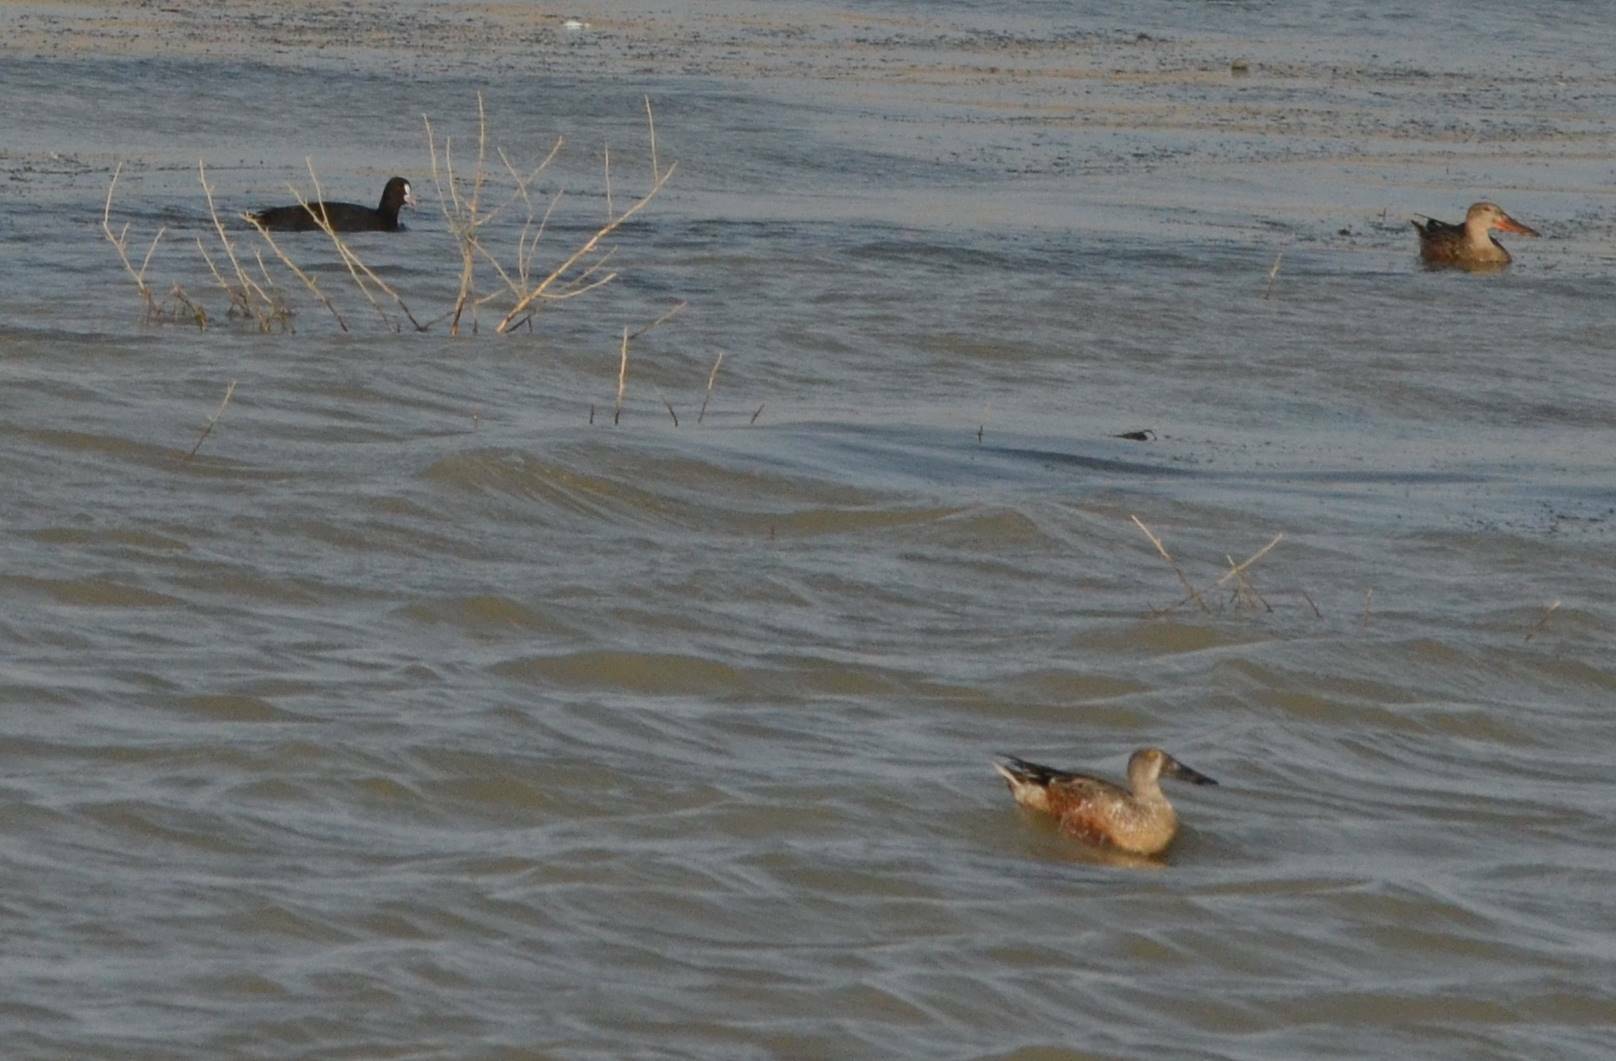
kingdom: Animalia
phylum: Chordata
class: Aves
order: Anseriformes
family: Anatidae
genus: Spatula
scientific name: Spatula clypeata
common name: Northern shoveler
